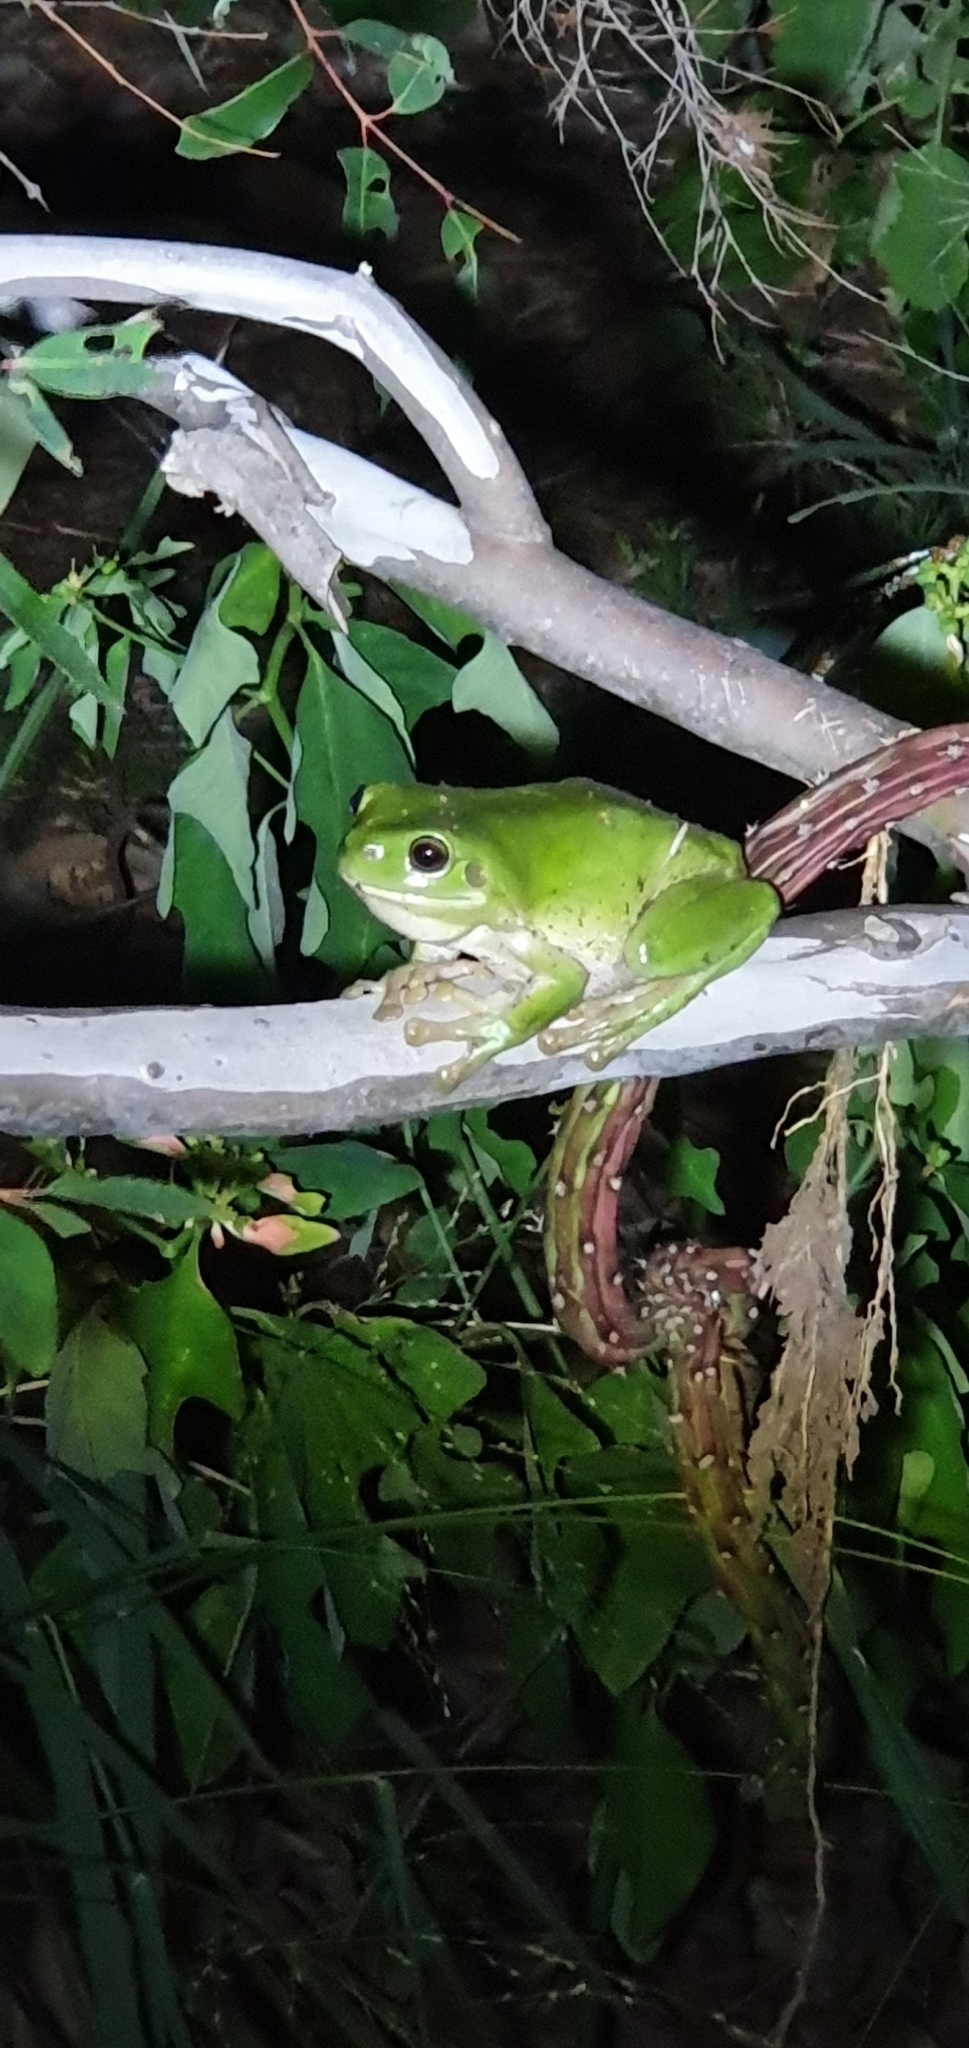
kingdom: Animalia
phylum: Chordata
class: Amphibia
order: Anura
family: Pelodryadidae
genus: Ranoidea
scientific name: Ranoidea caerulea
